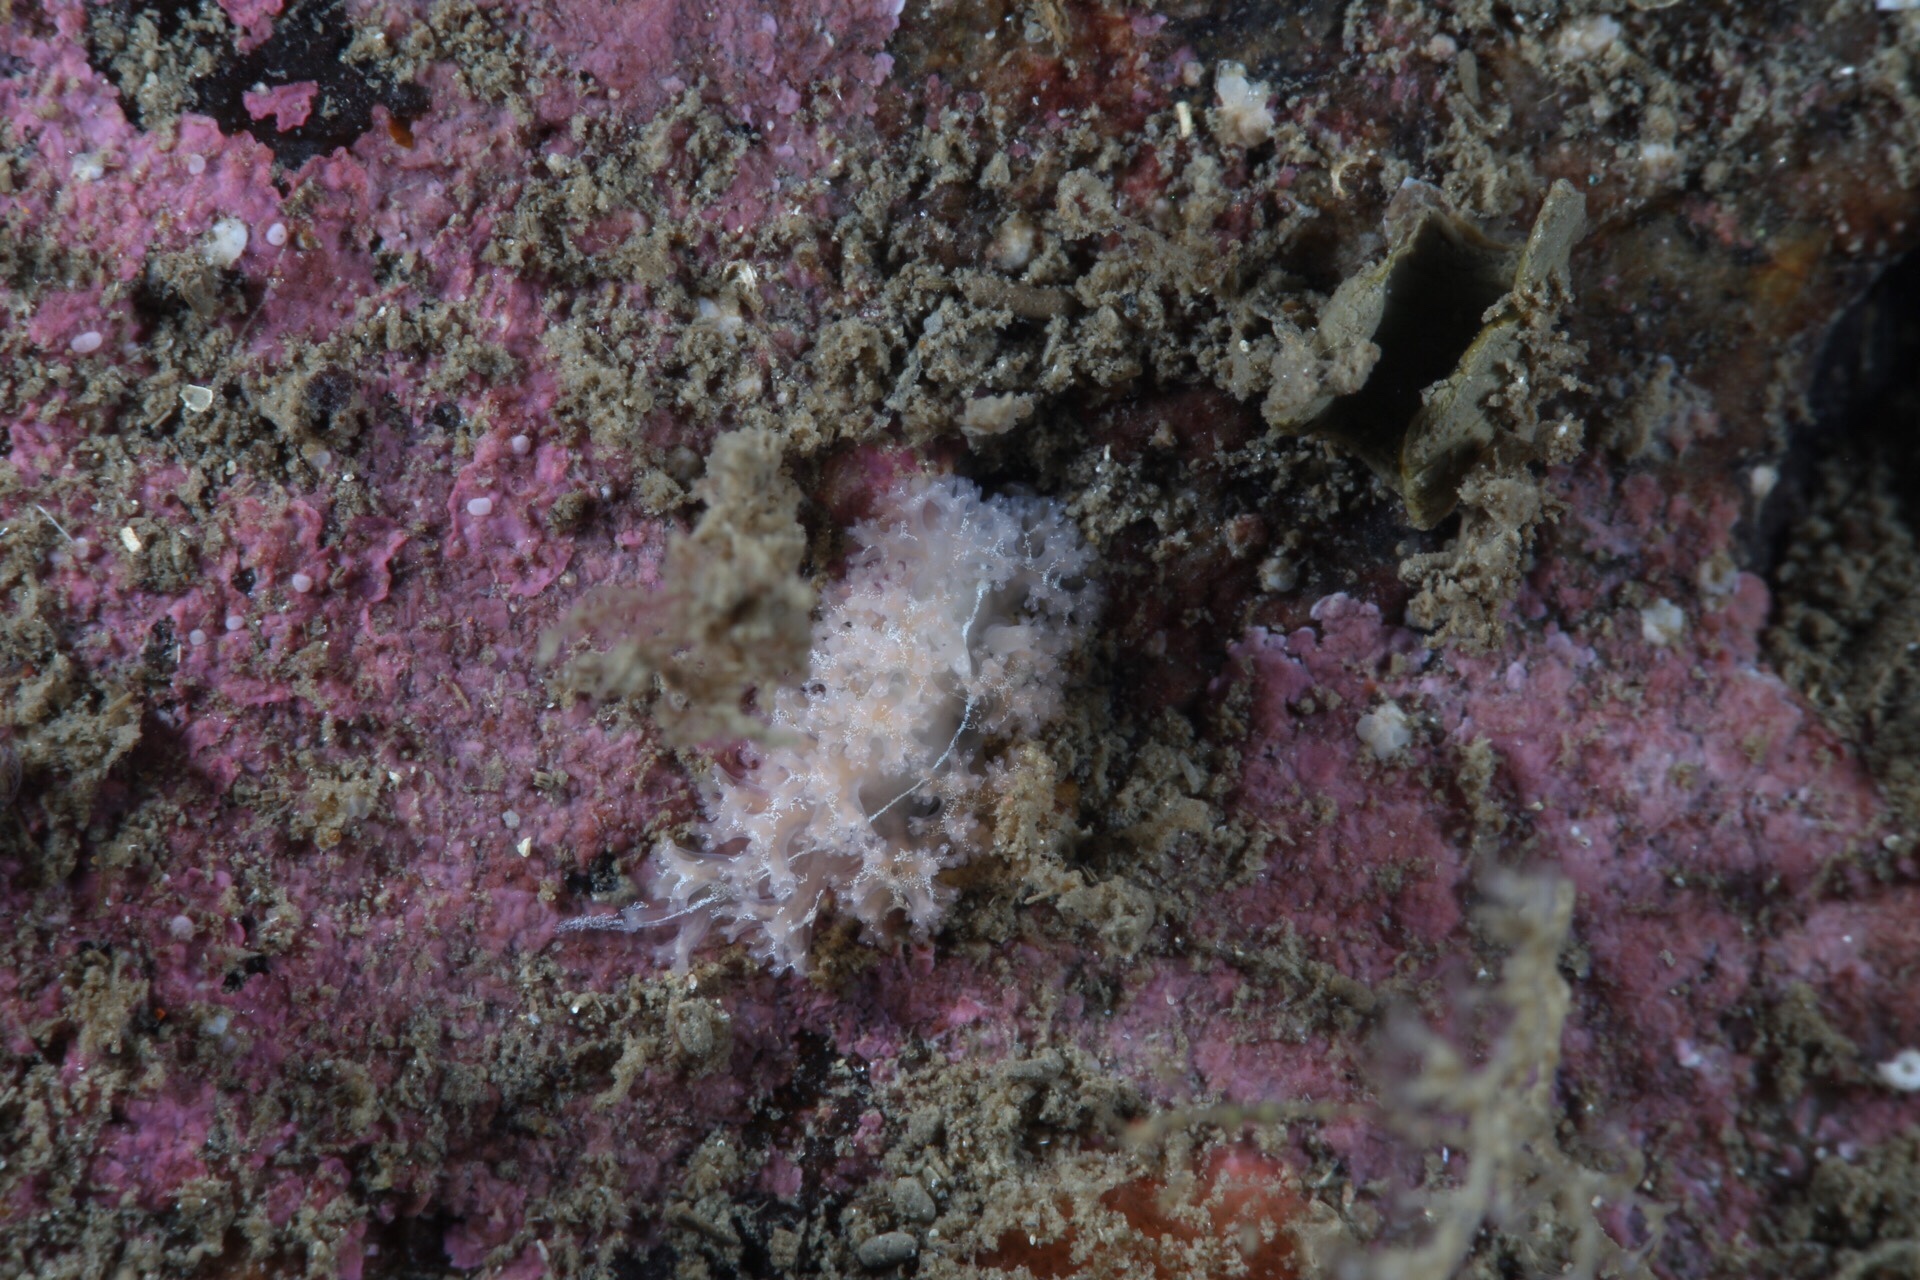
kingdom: Animalia
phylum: Mollusca
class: Gastropoda
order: Nudibranchia
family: Heroidae
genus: Hero
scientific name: Hero formosa
